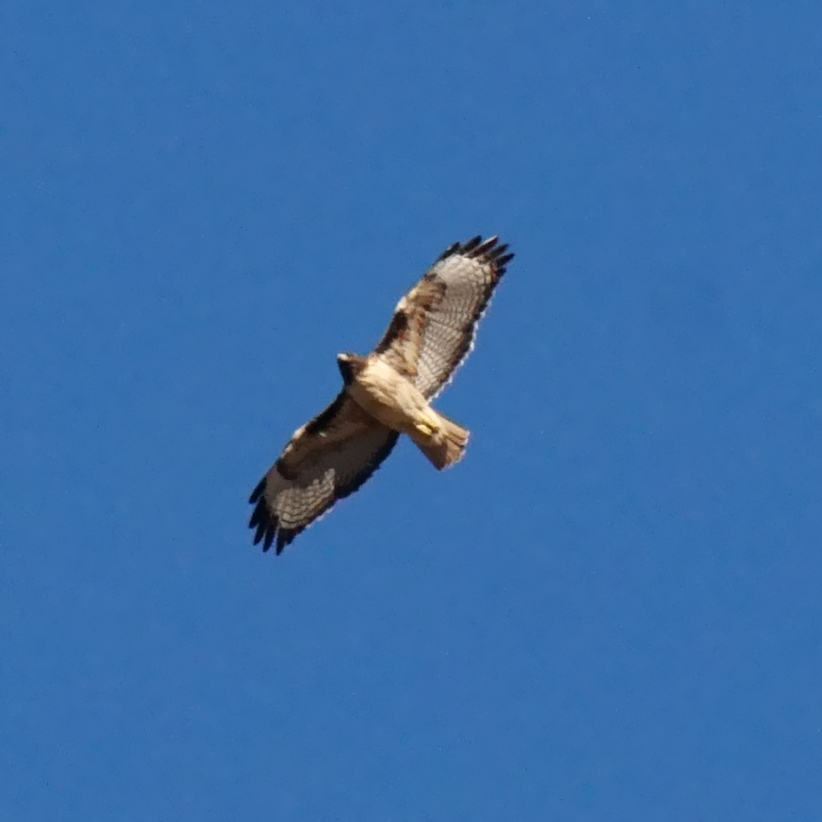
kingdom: Animalia
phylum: Chordata
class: Aves
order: Accipitriformes
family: Accipitridae
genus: Buteo
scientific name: Buteo jamaicensis
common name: Red-tailed hawk
